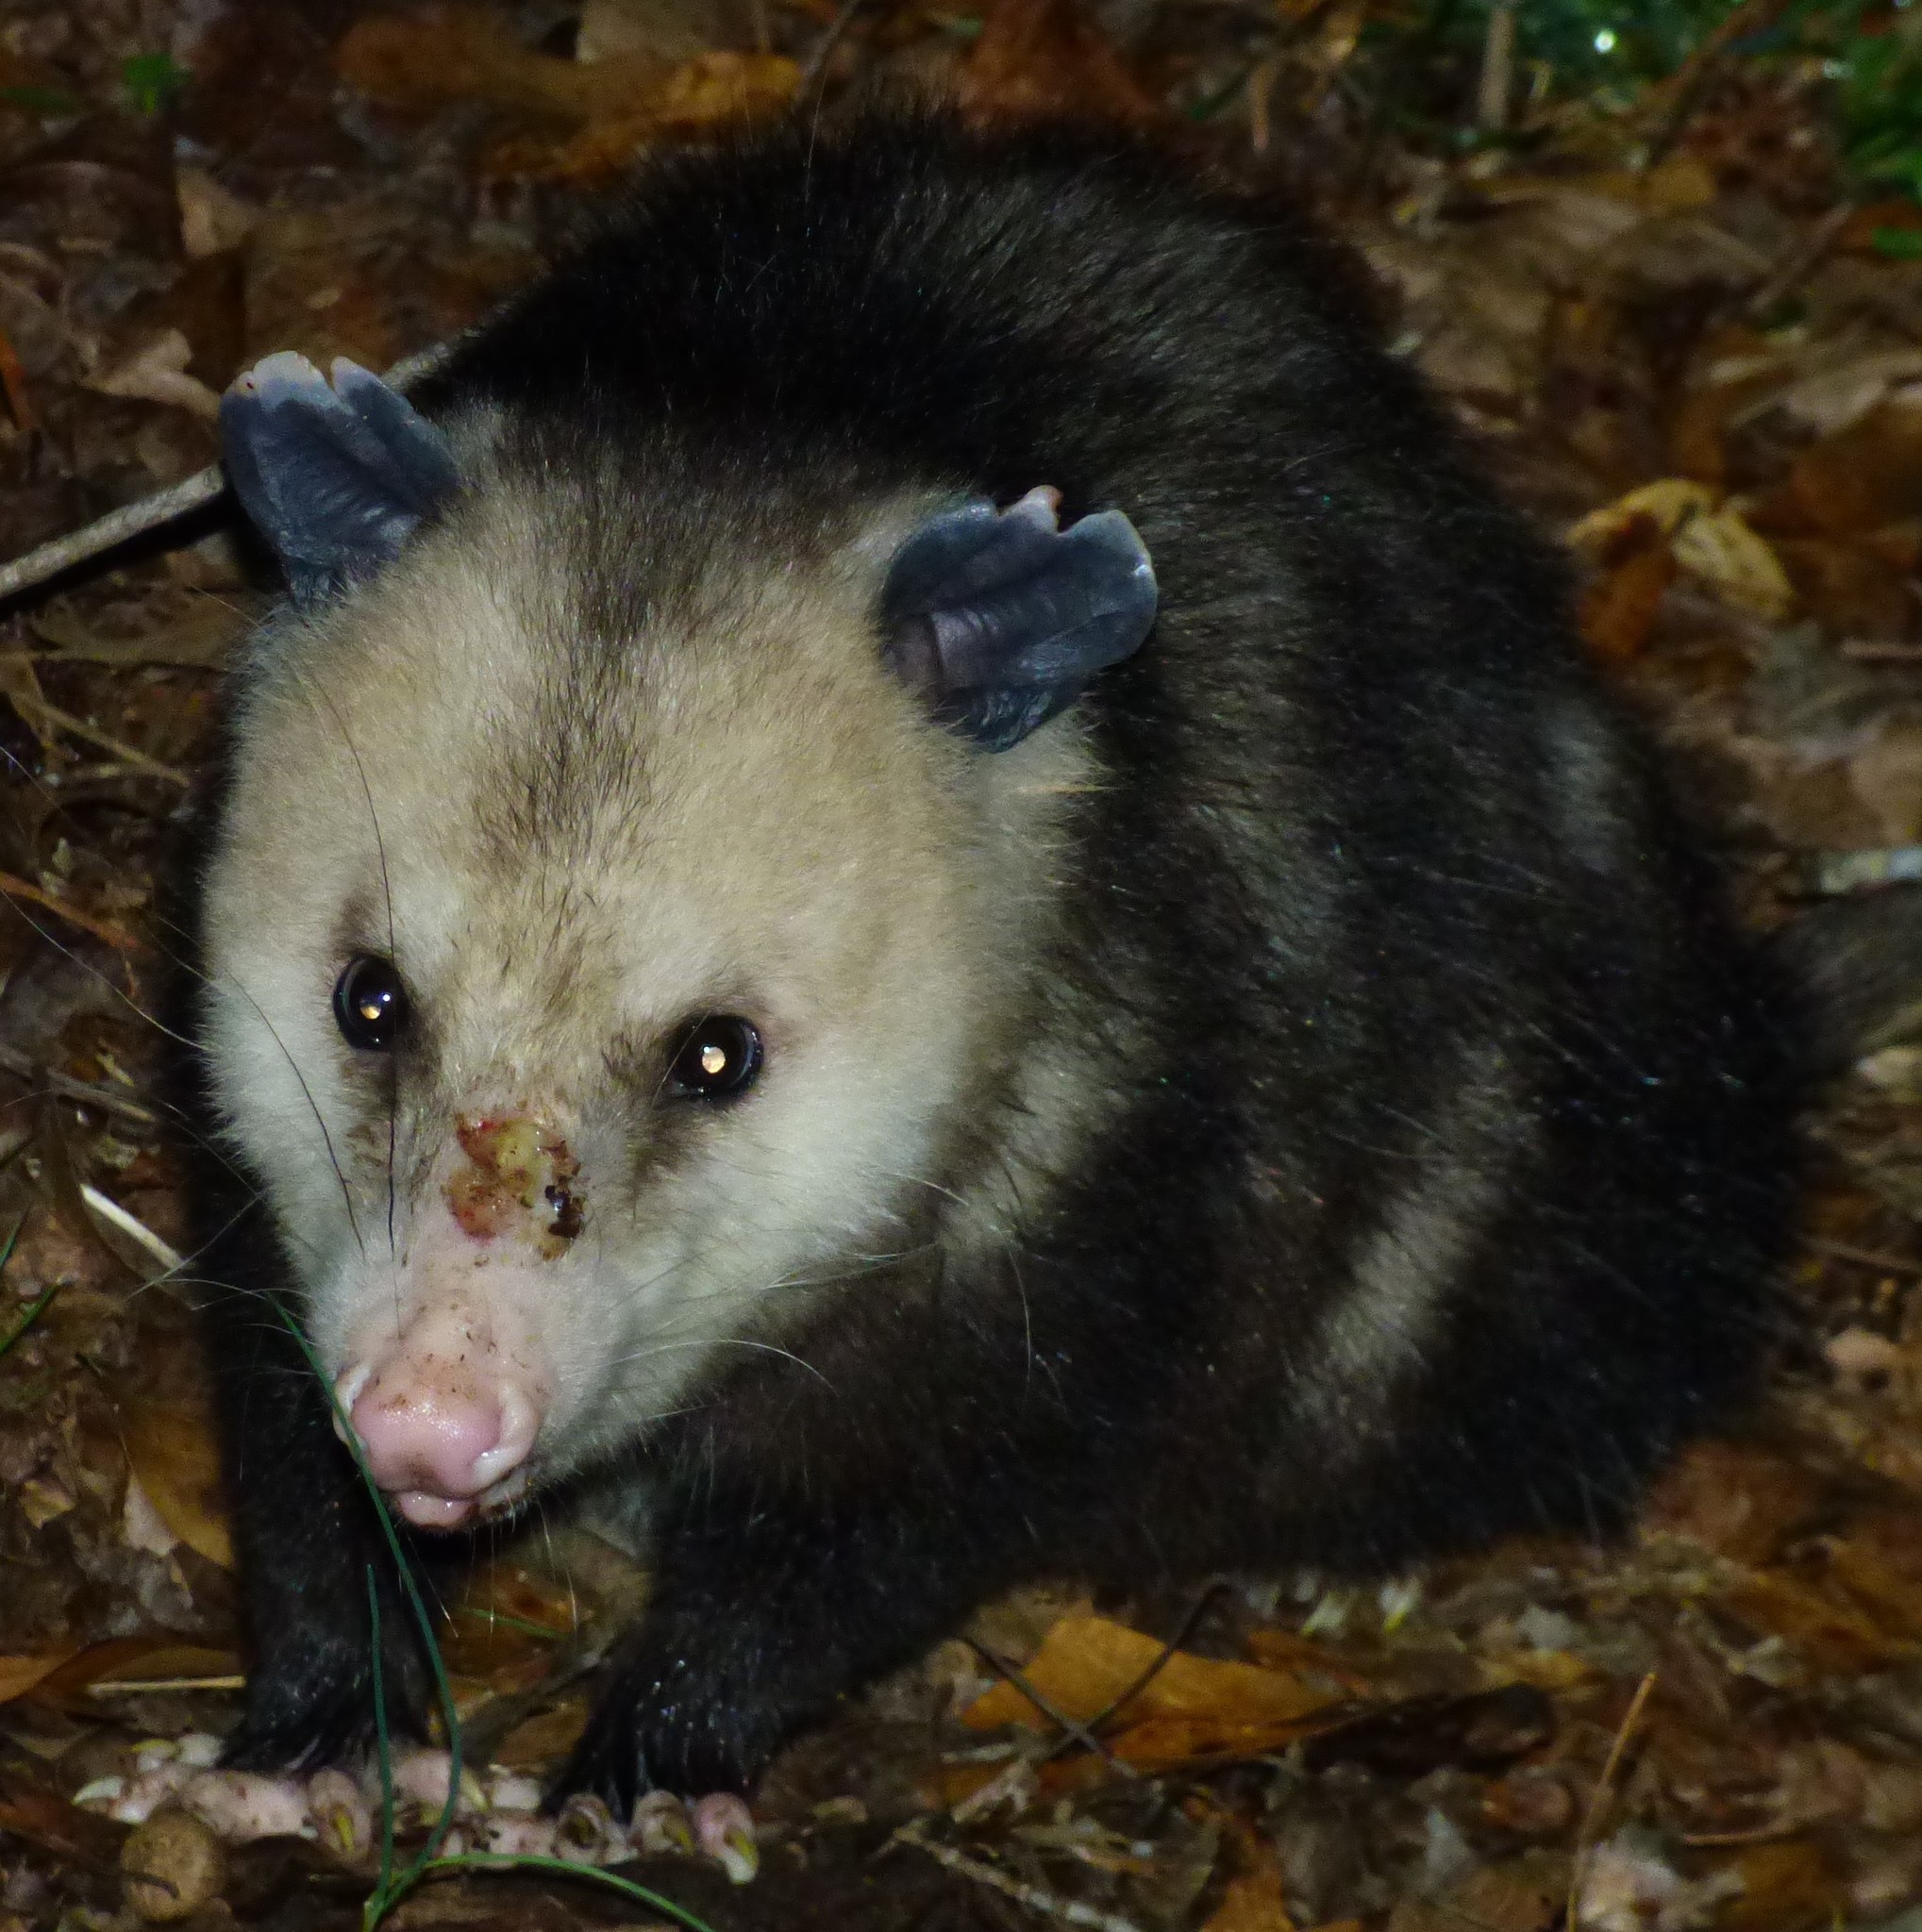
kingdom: Animalia
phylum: Chordata
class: Mammalia
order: Didelphimorphia
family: Didelphidae
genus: Didelphis
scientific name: Didelphis virginiana
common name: Virginia opossum
